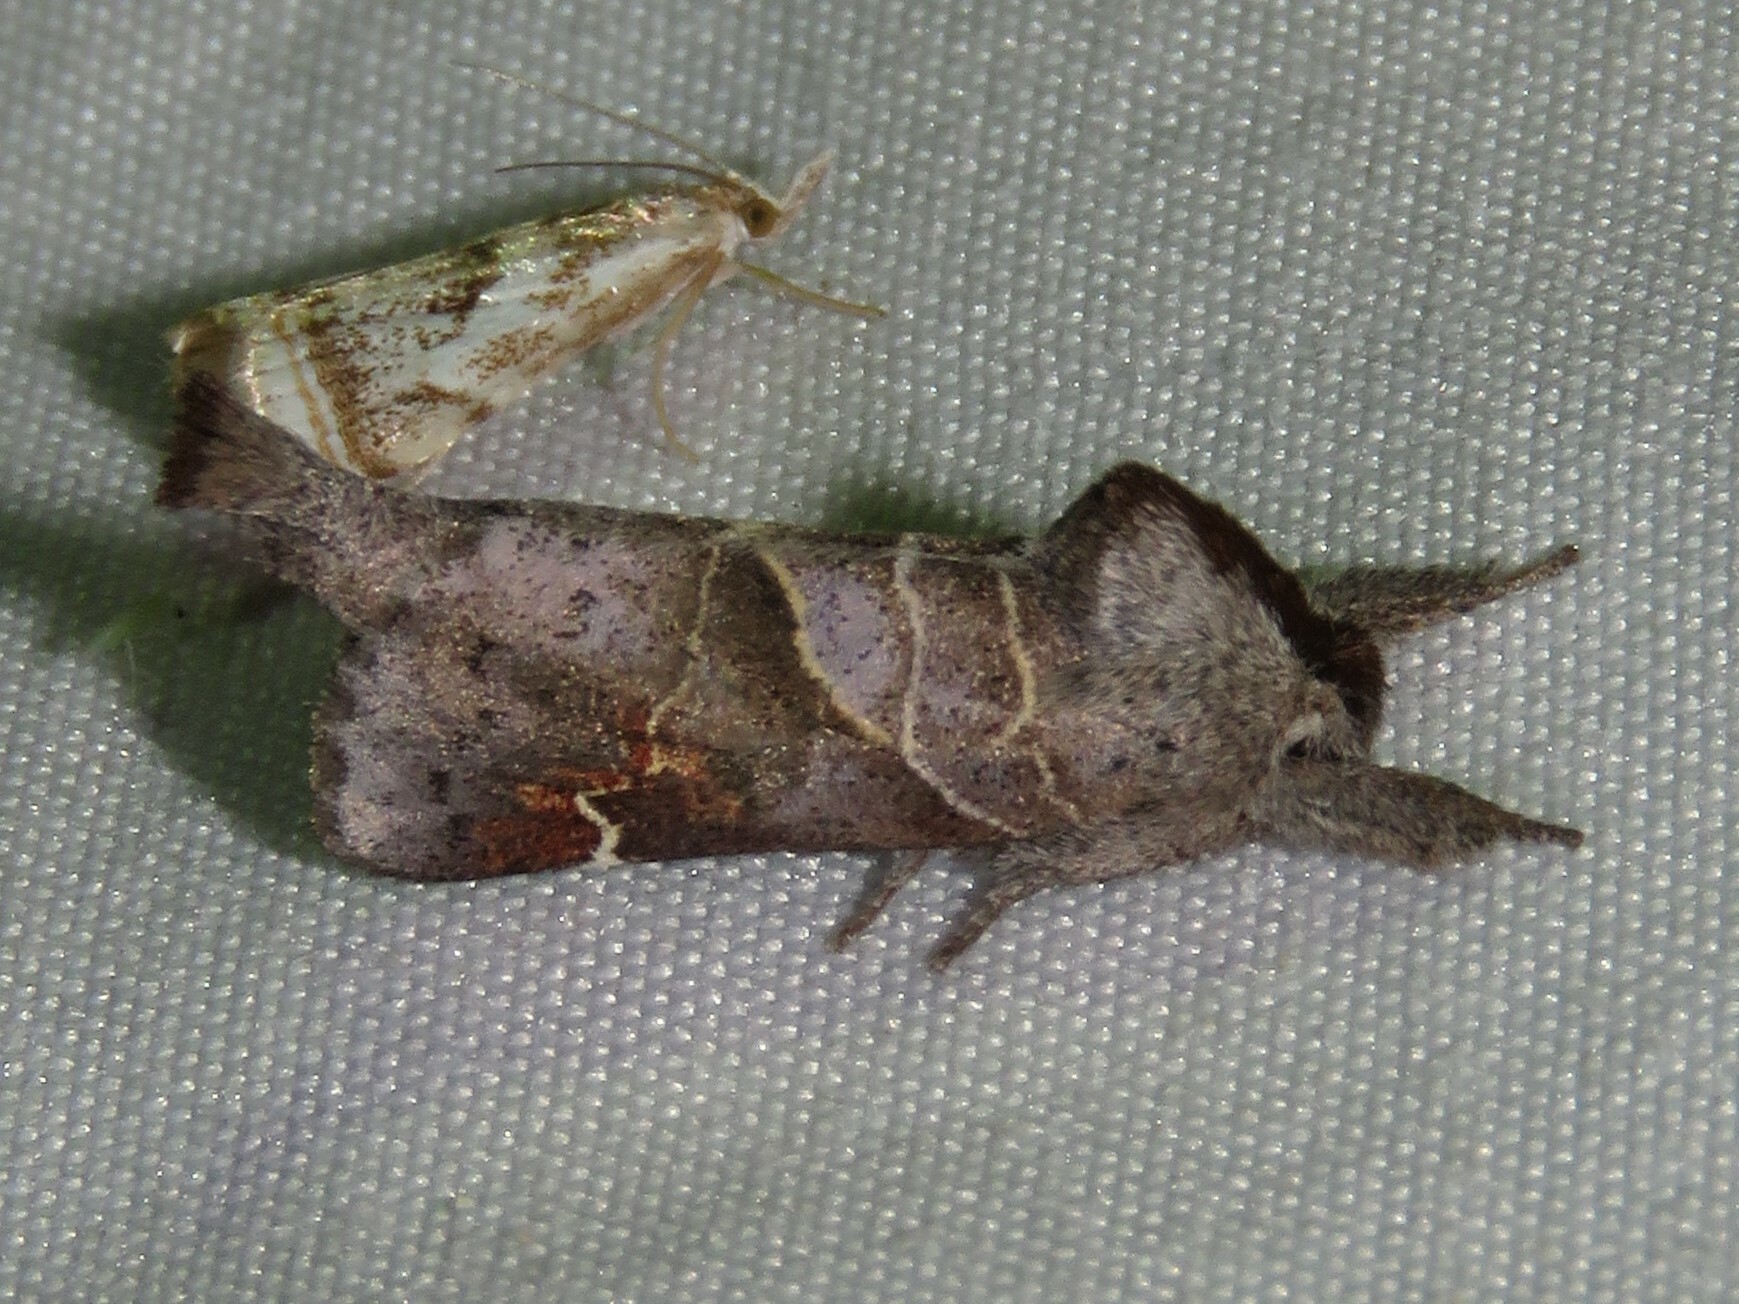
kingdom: Animalia
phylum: Arthropoda
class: Insecta
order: Lepidoptera
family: Notodontidae
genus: Clostera
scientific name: Clostera apicalis
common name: Apical prominent
